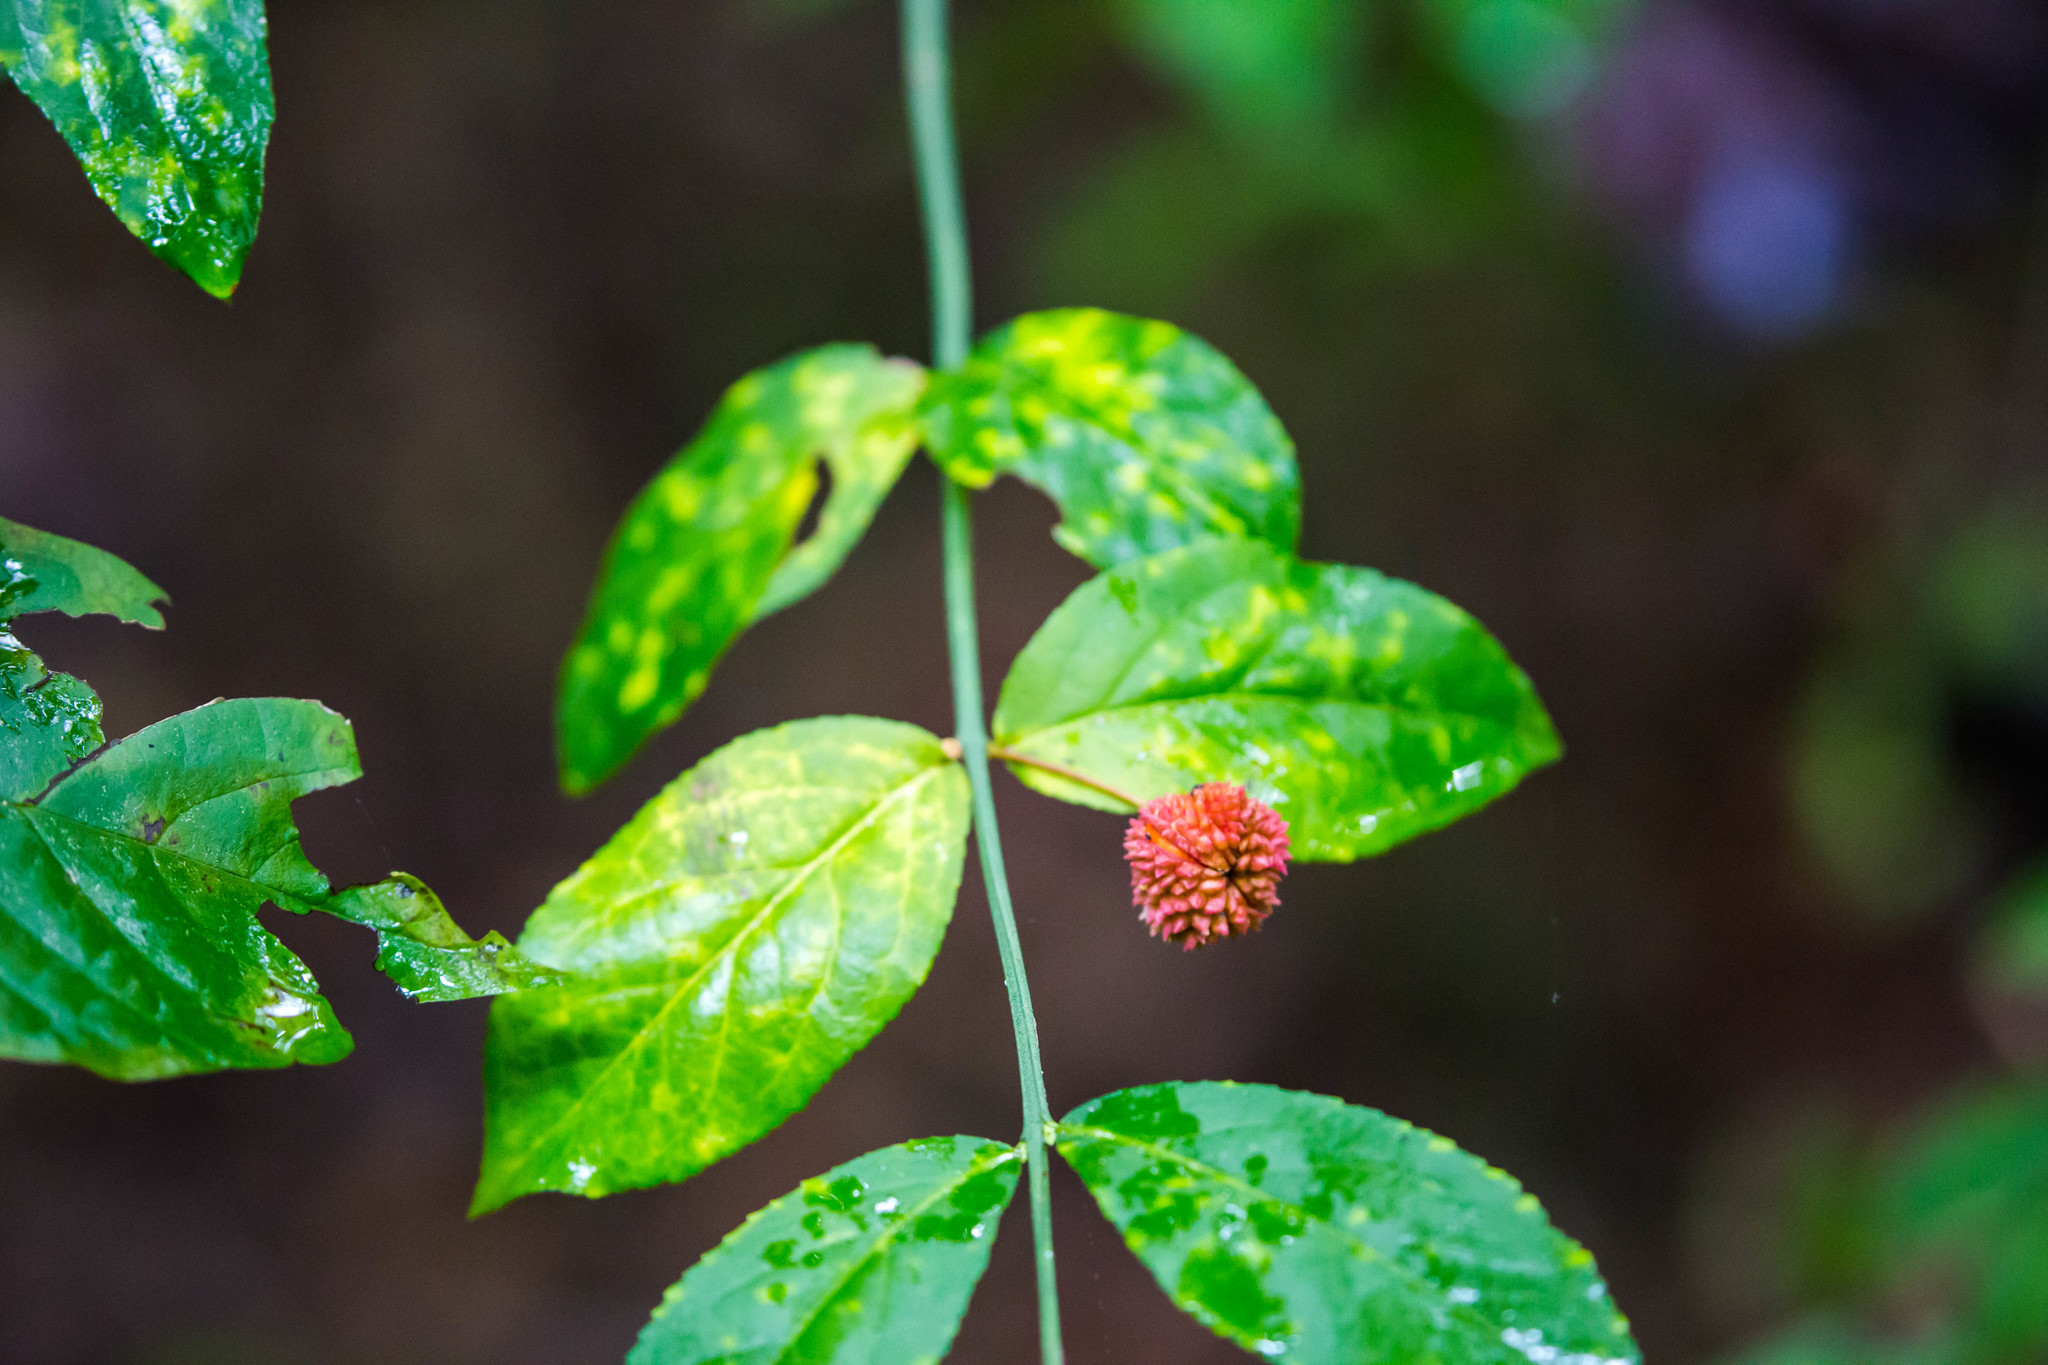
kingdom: Plantae
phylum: Tracheophyta
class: Magnoliopsida
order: Celastrales
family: Celastraceae
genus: Euonymus
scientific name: Euonymus americanus
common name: Bursting-heart
